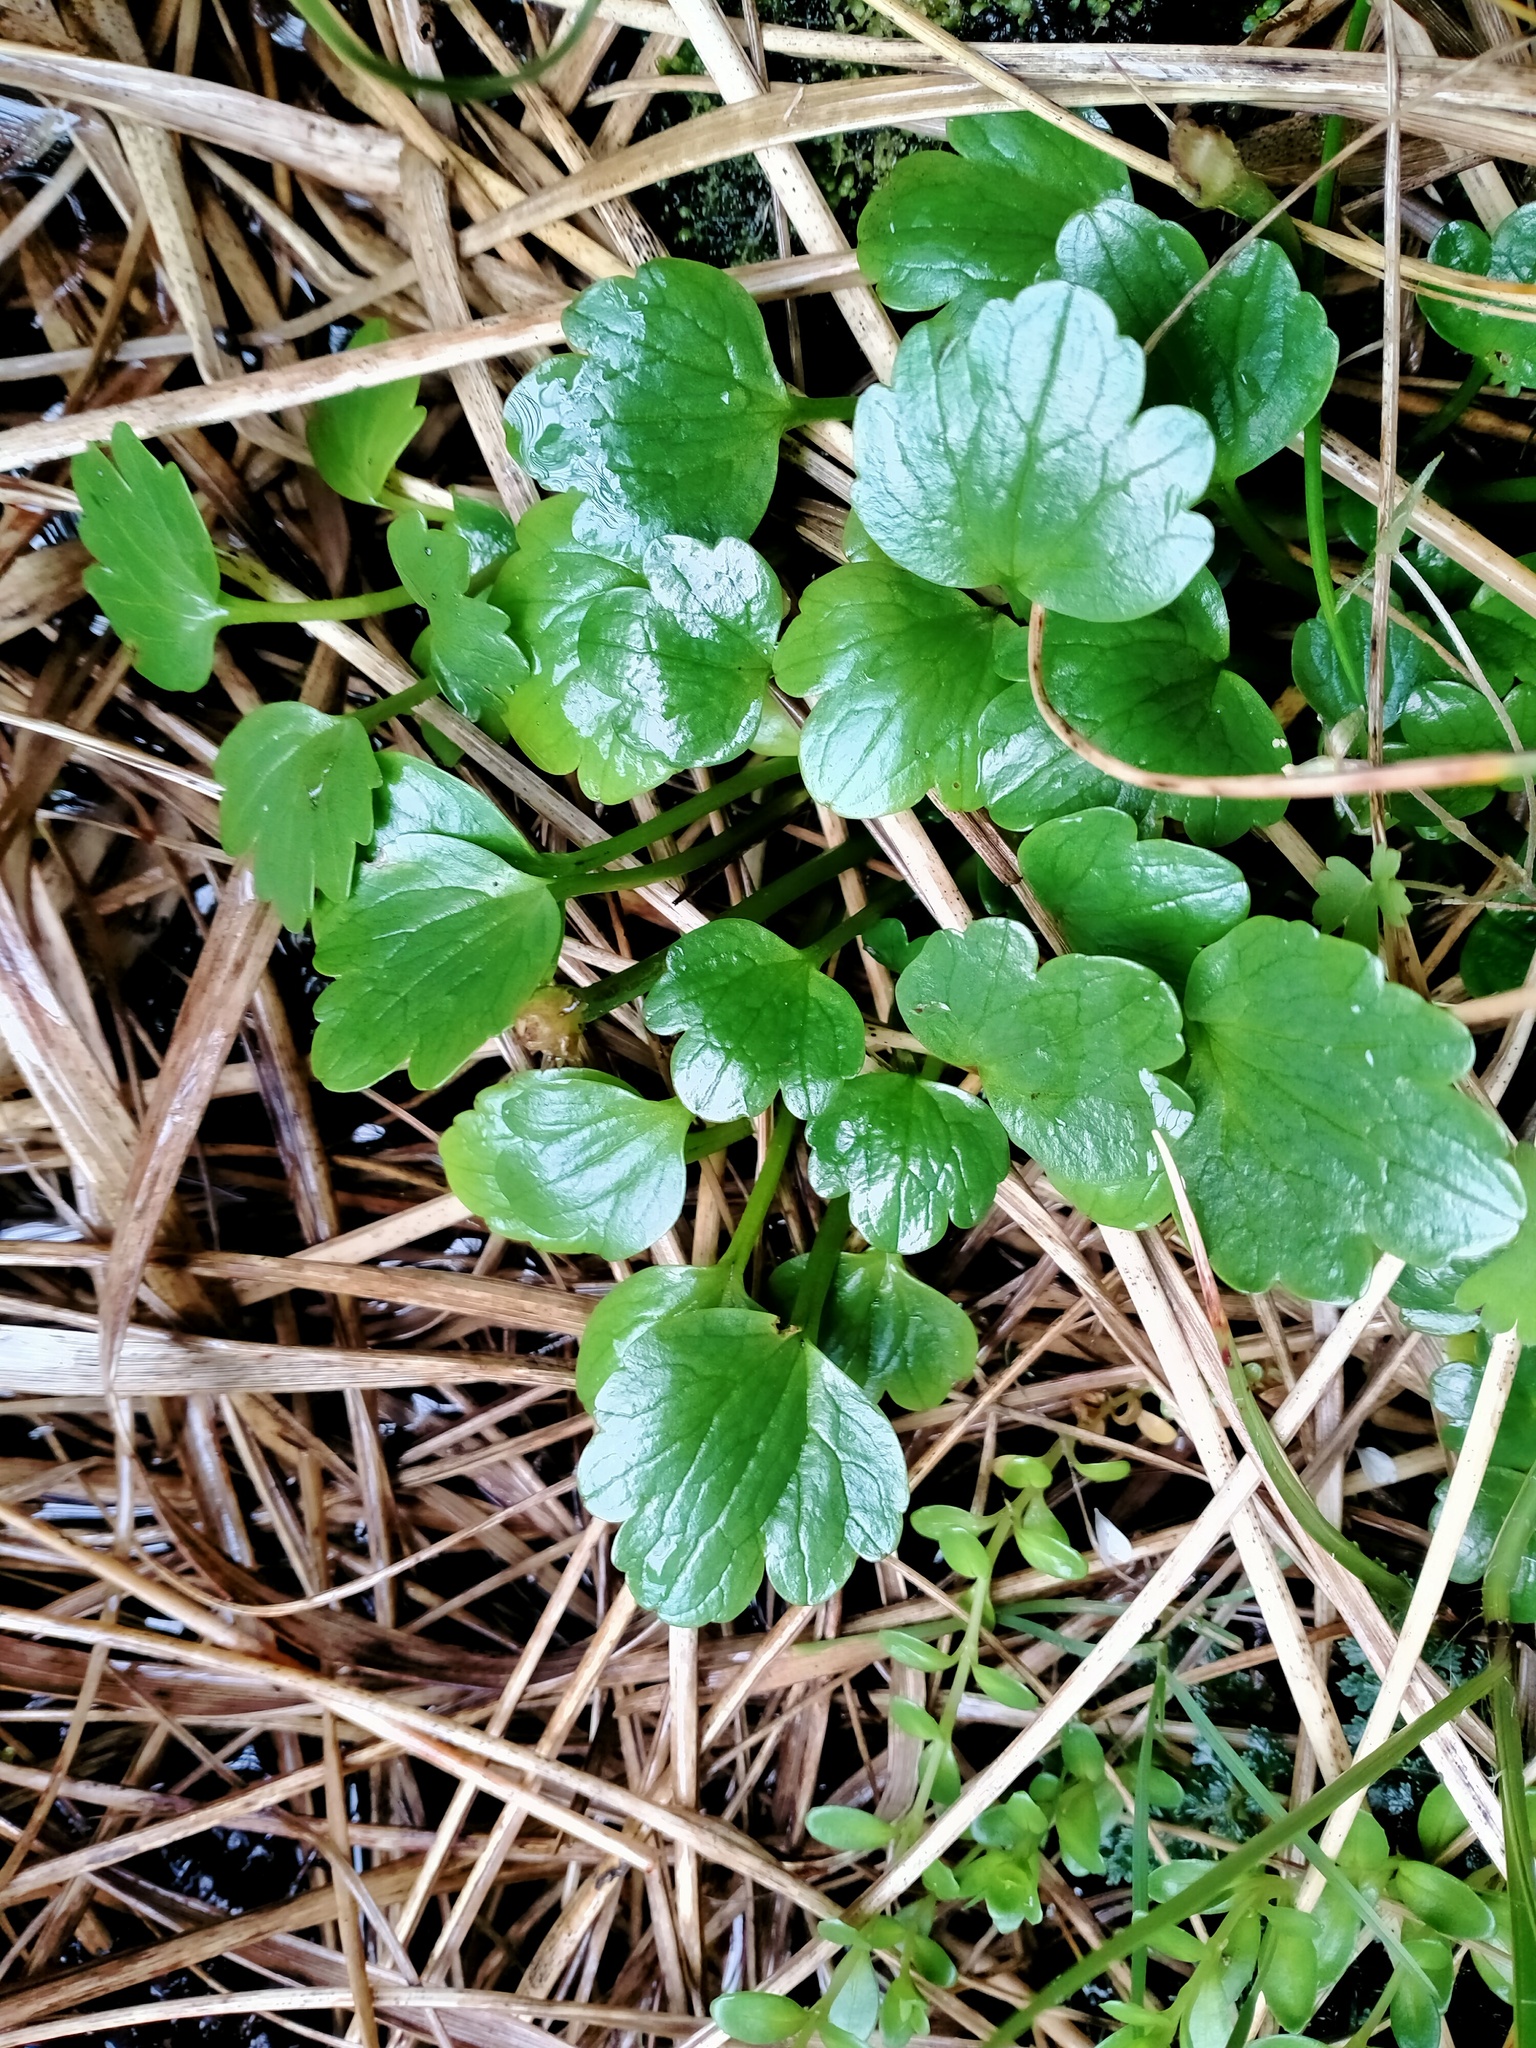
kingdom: Plantae
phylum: Tracheophyta
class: Magnoliopsida
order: Ranunculales
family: Ranunculaceae
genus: Ranunculus
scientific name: Ranunculus pinguis
